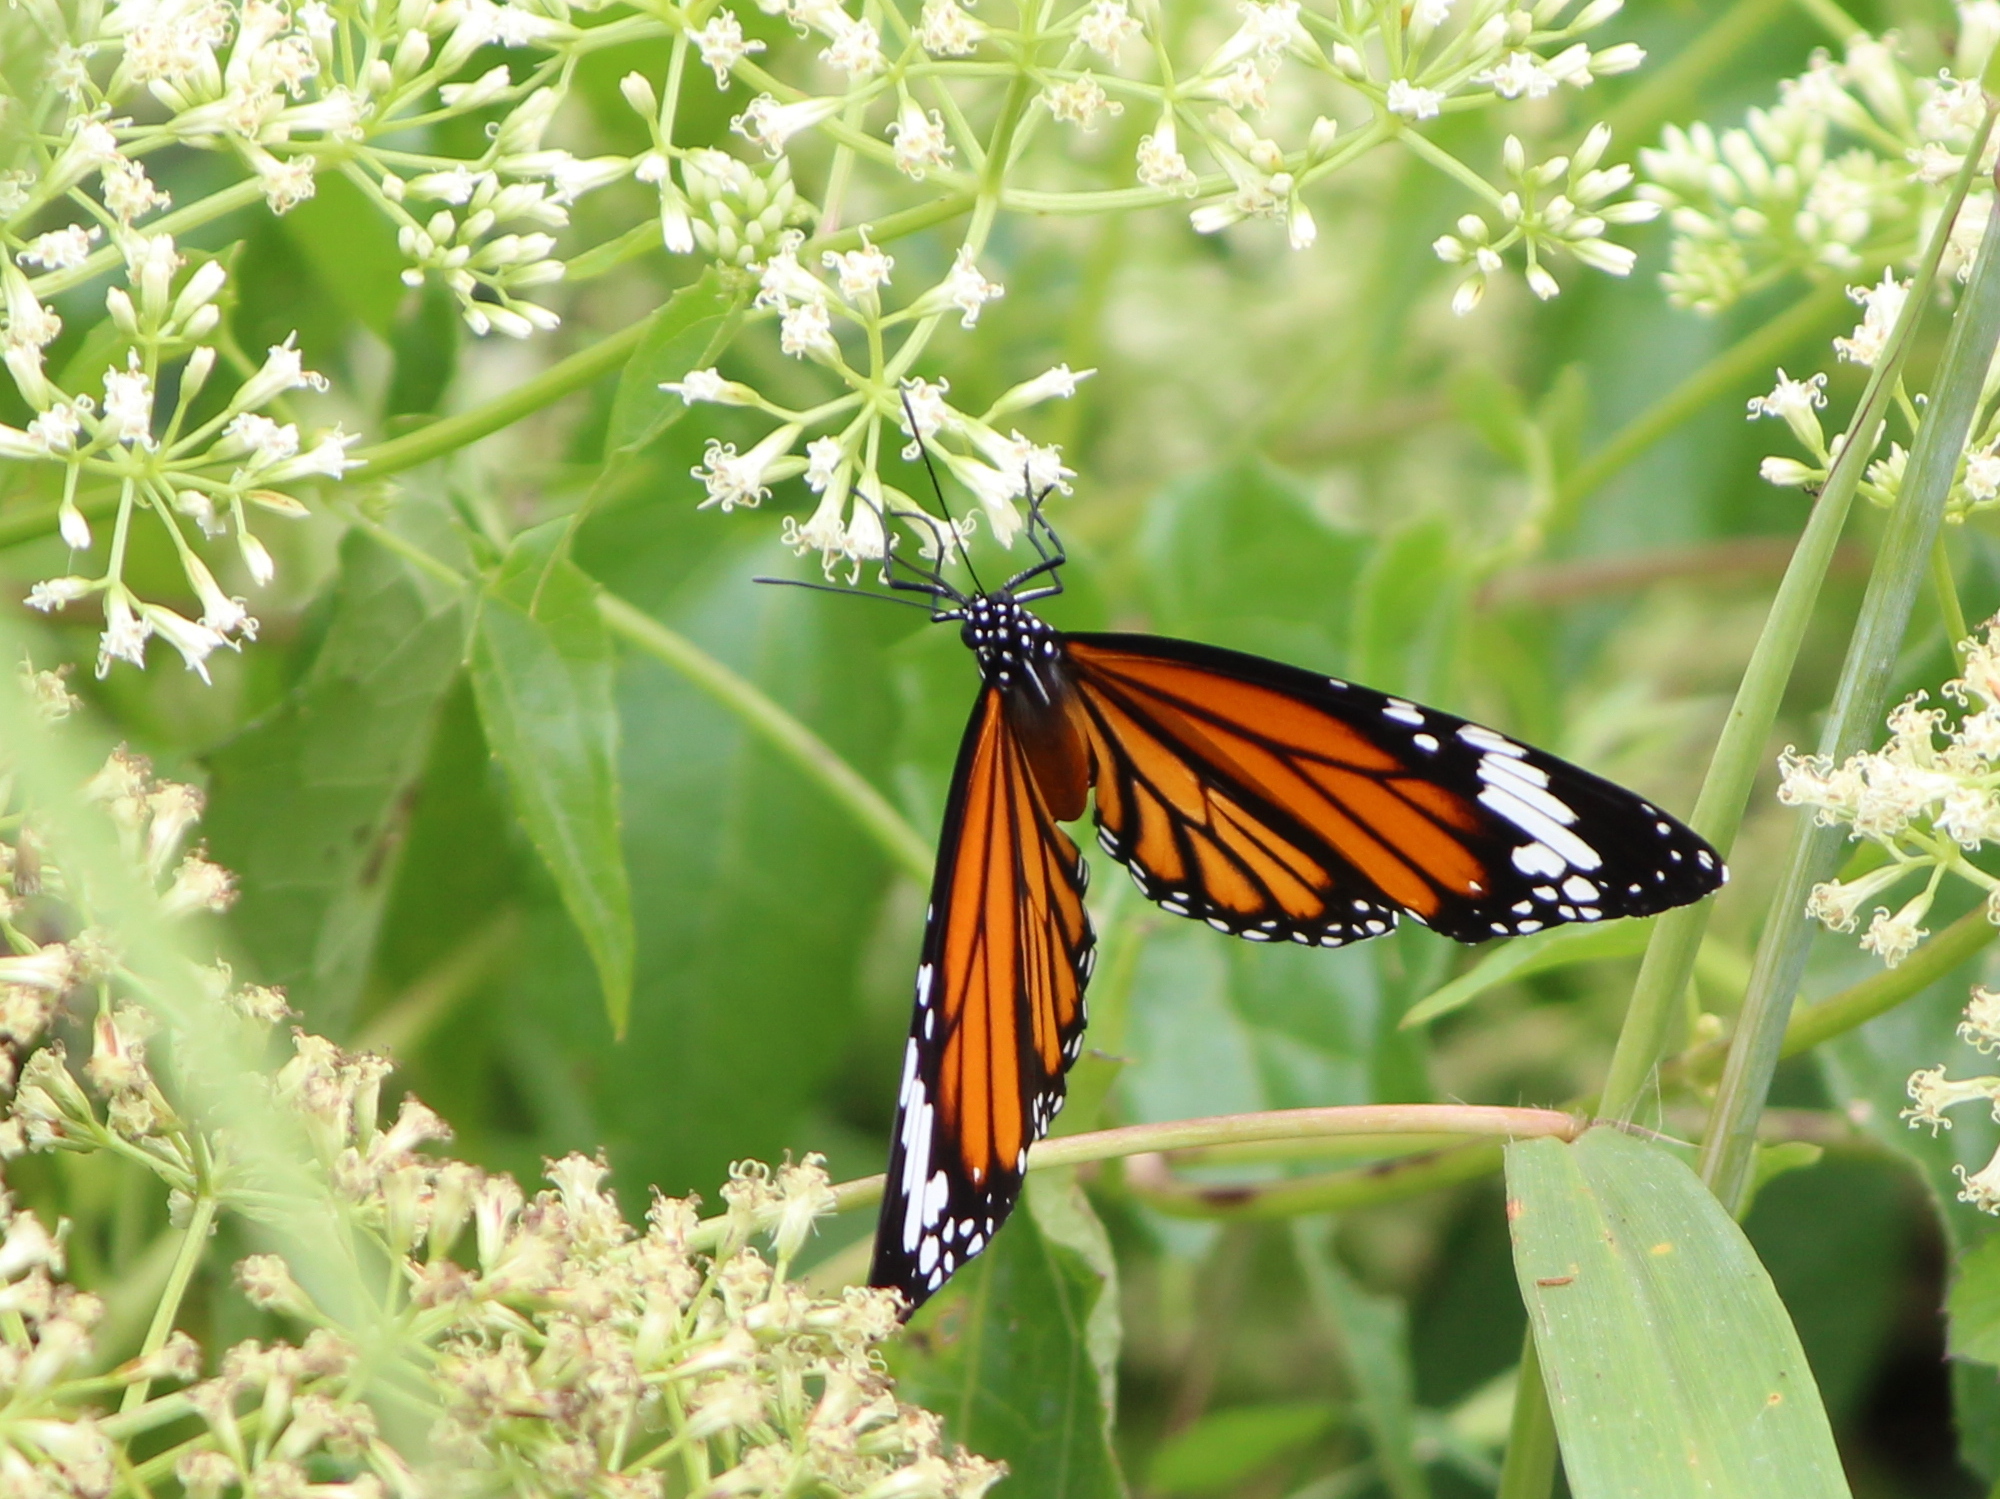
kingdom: Animalia
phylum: Arthropoda
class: Insecta
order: Lepidoptera
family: Nymphalidae
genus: Danaus
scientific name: Danaus genutia
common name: Common tiger butterfly
